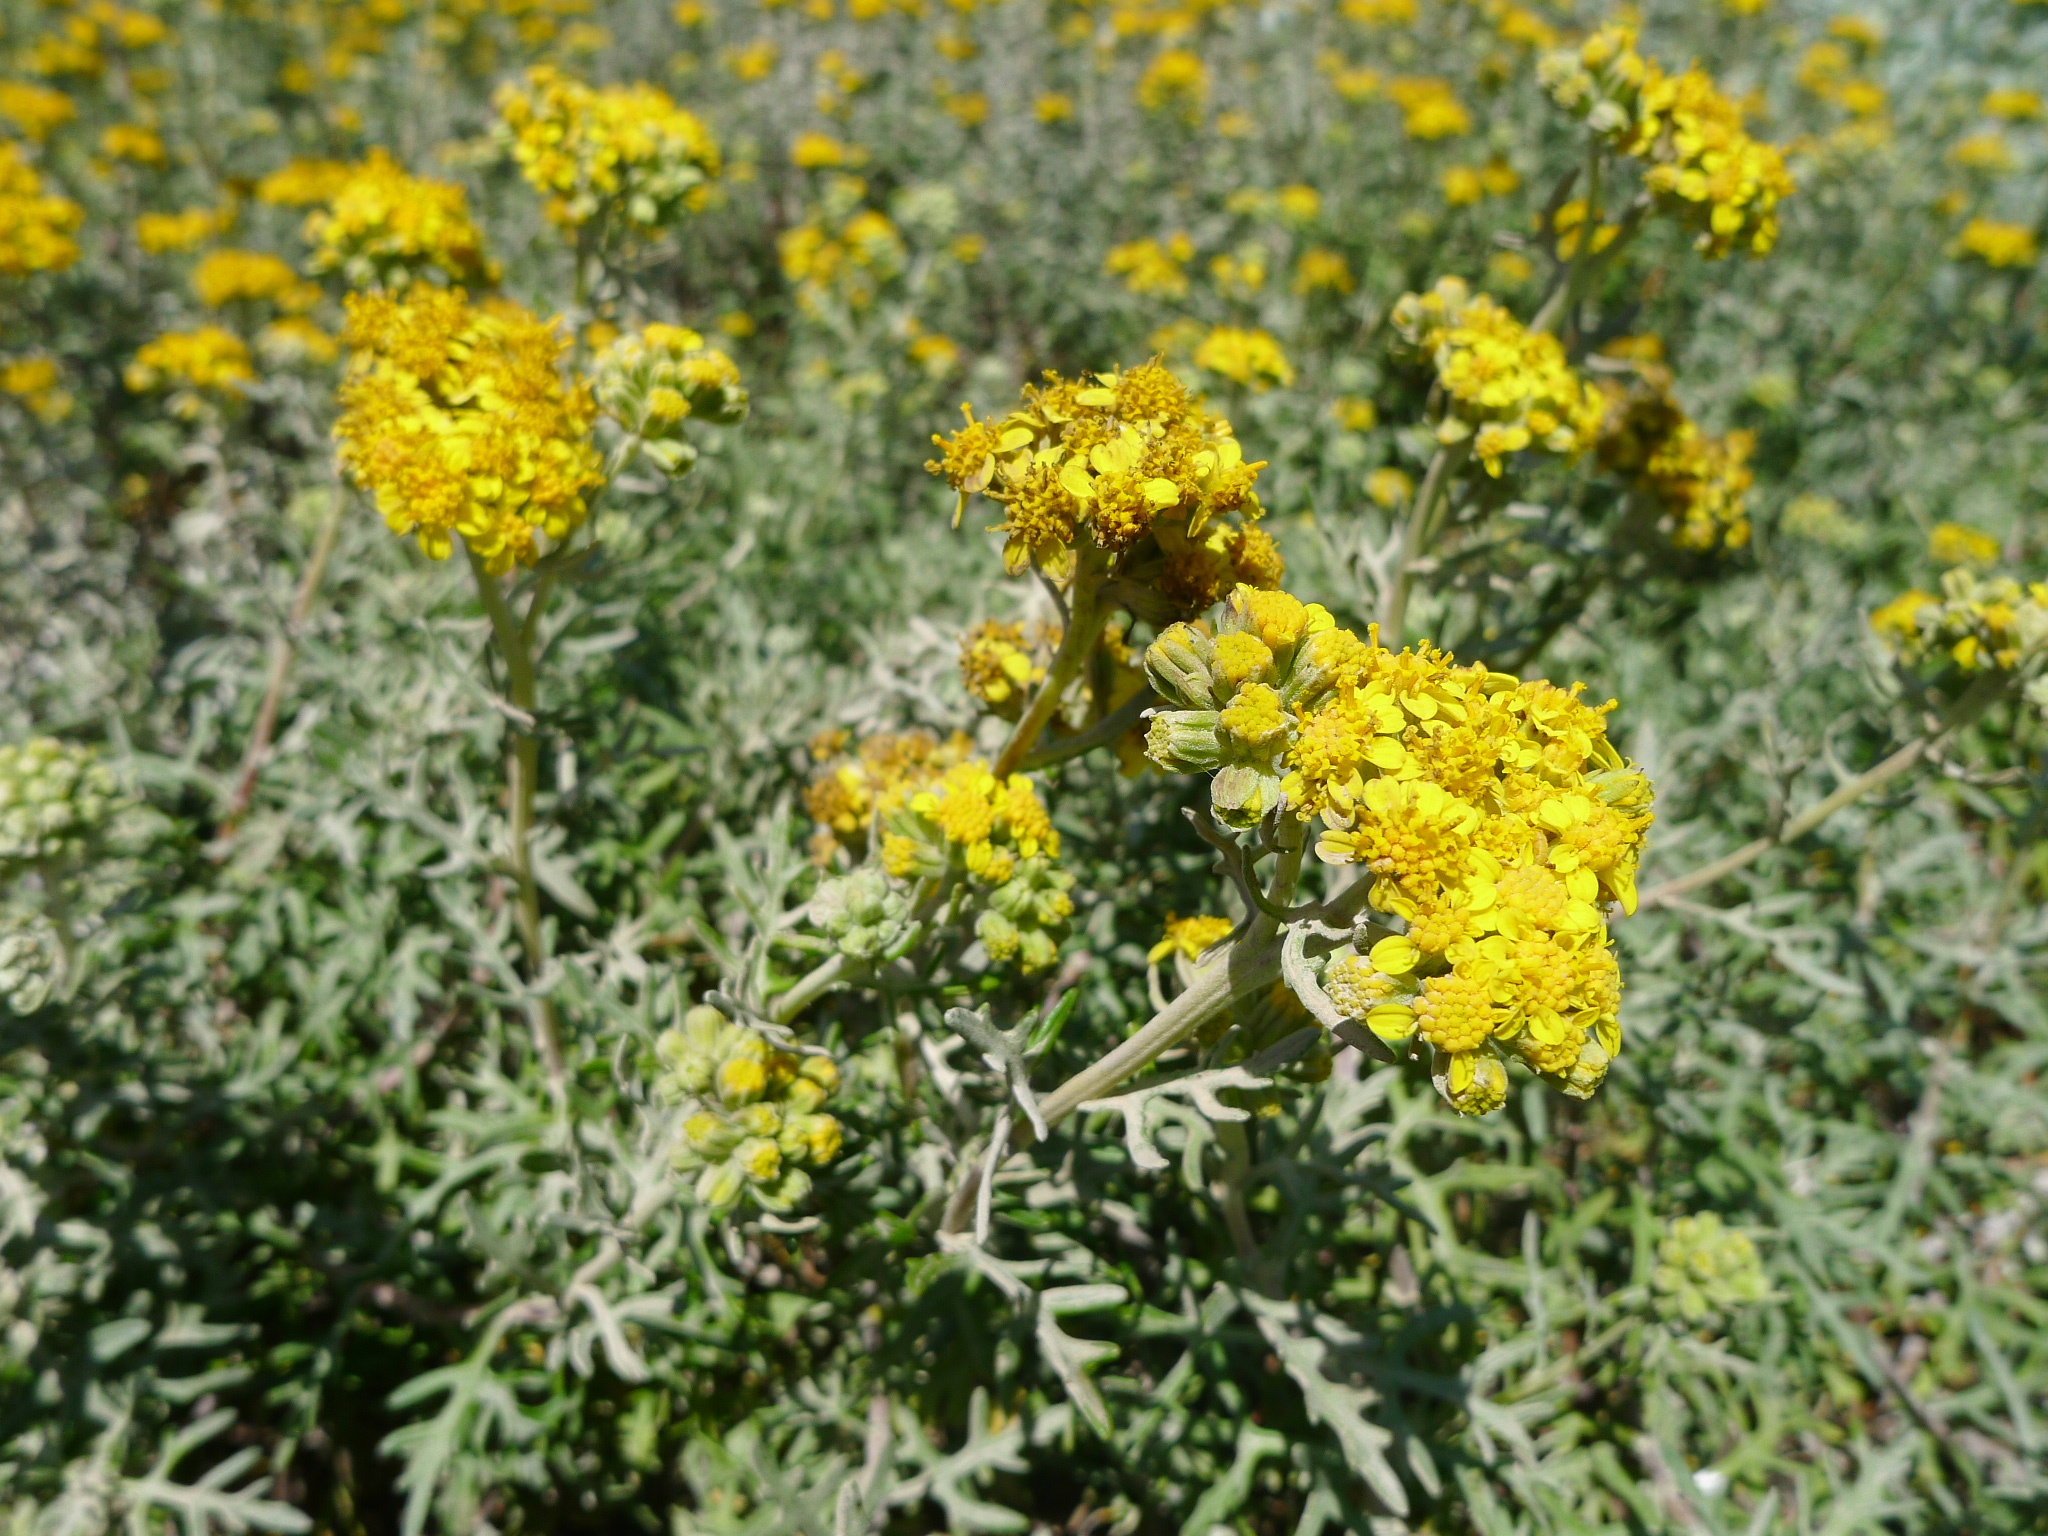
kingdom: Plantae
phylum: Tracheophyta
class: Magnoliopsida
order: Asterales
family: Asteraceae
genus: Eriophyllum
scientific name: Eriophyllum staechadifolium
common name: Lizardtail
